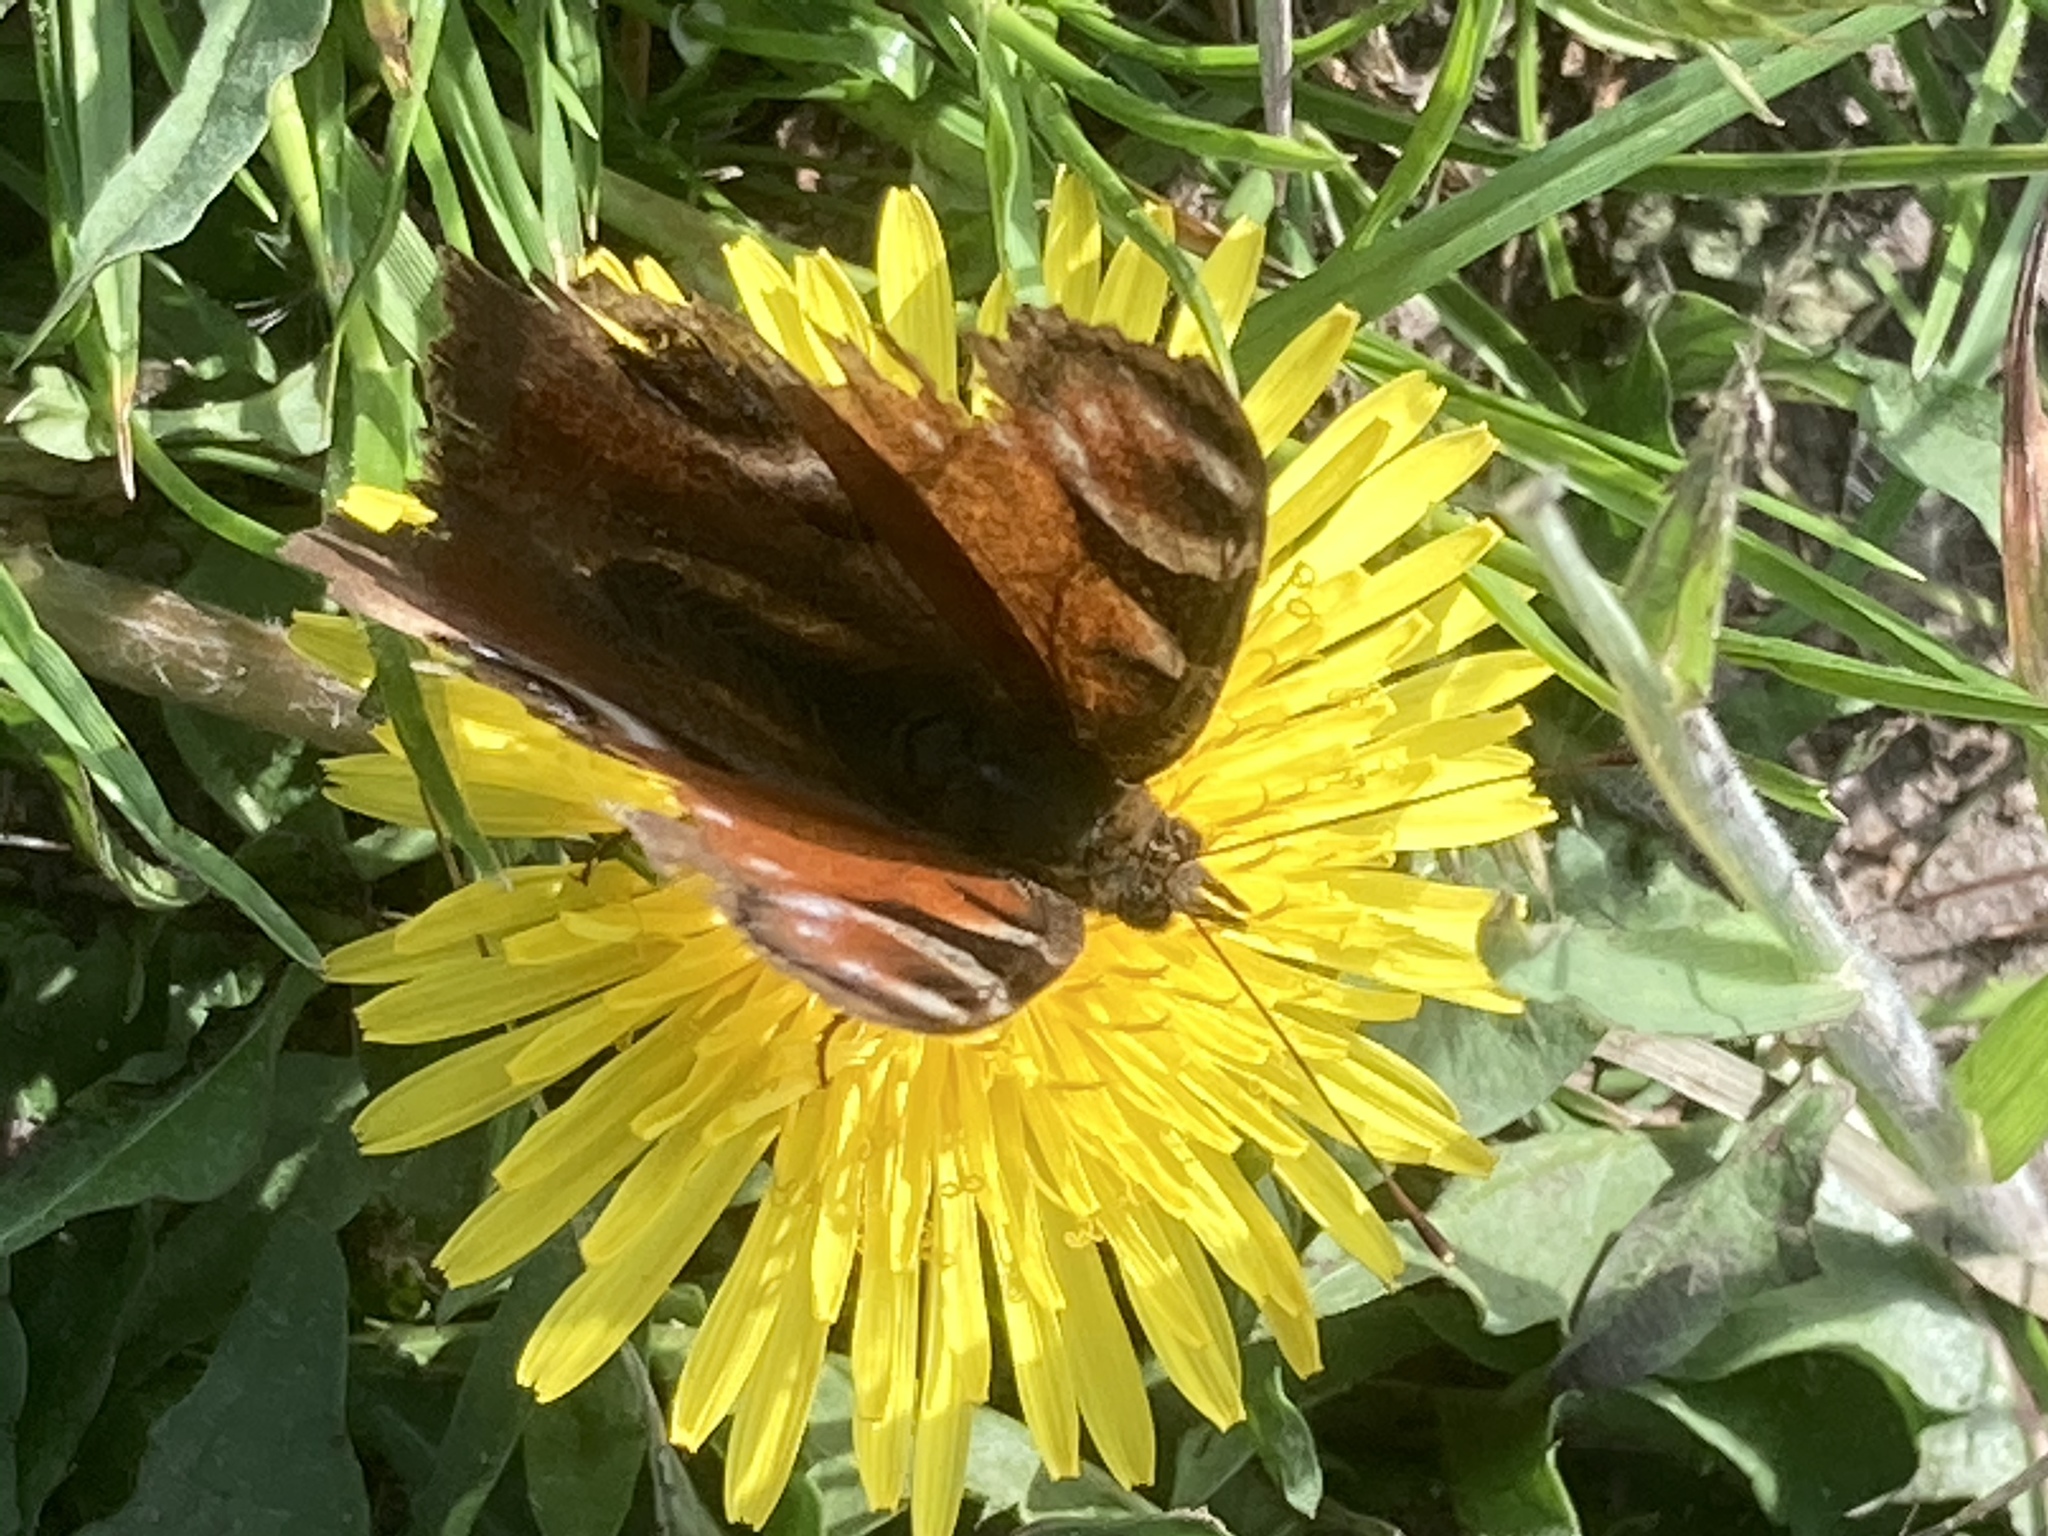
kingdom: Animalia
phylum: Arthropoda
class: Insecta
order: Lepidoptera
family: Nymphalidae
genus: Aglais
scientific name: Aglais io
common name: Peacock
